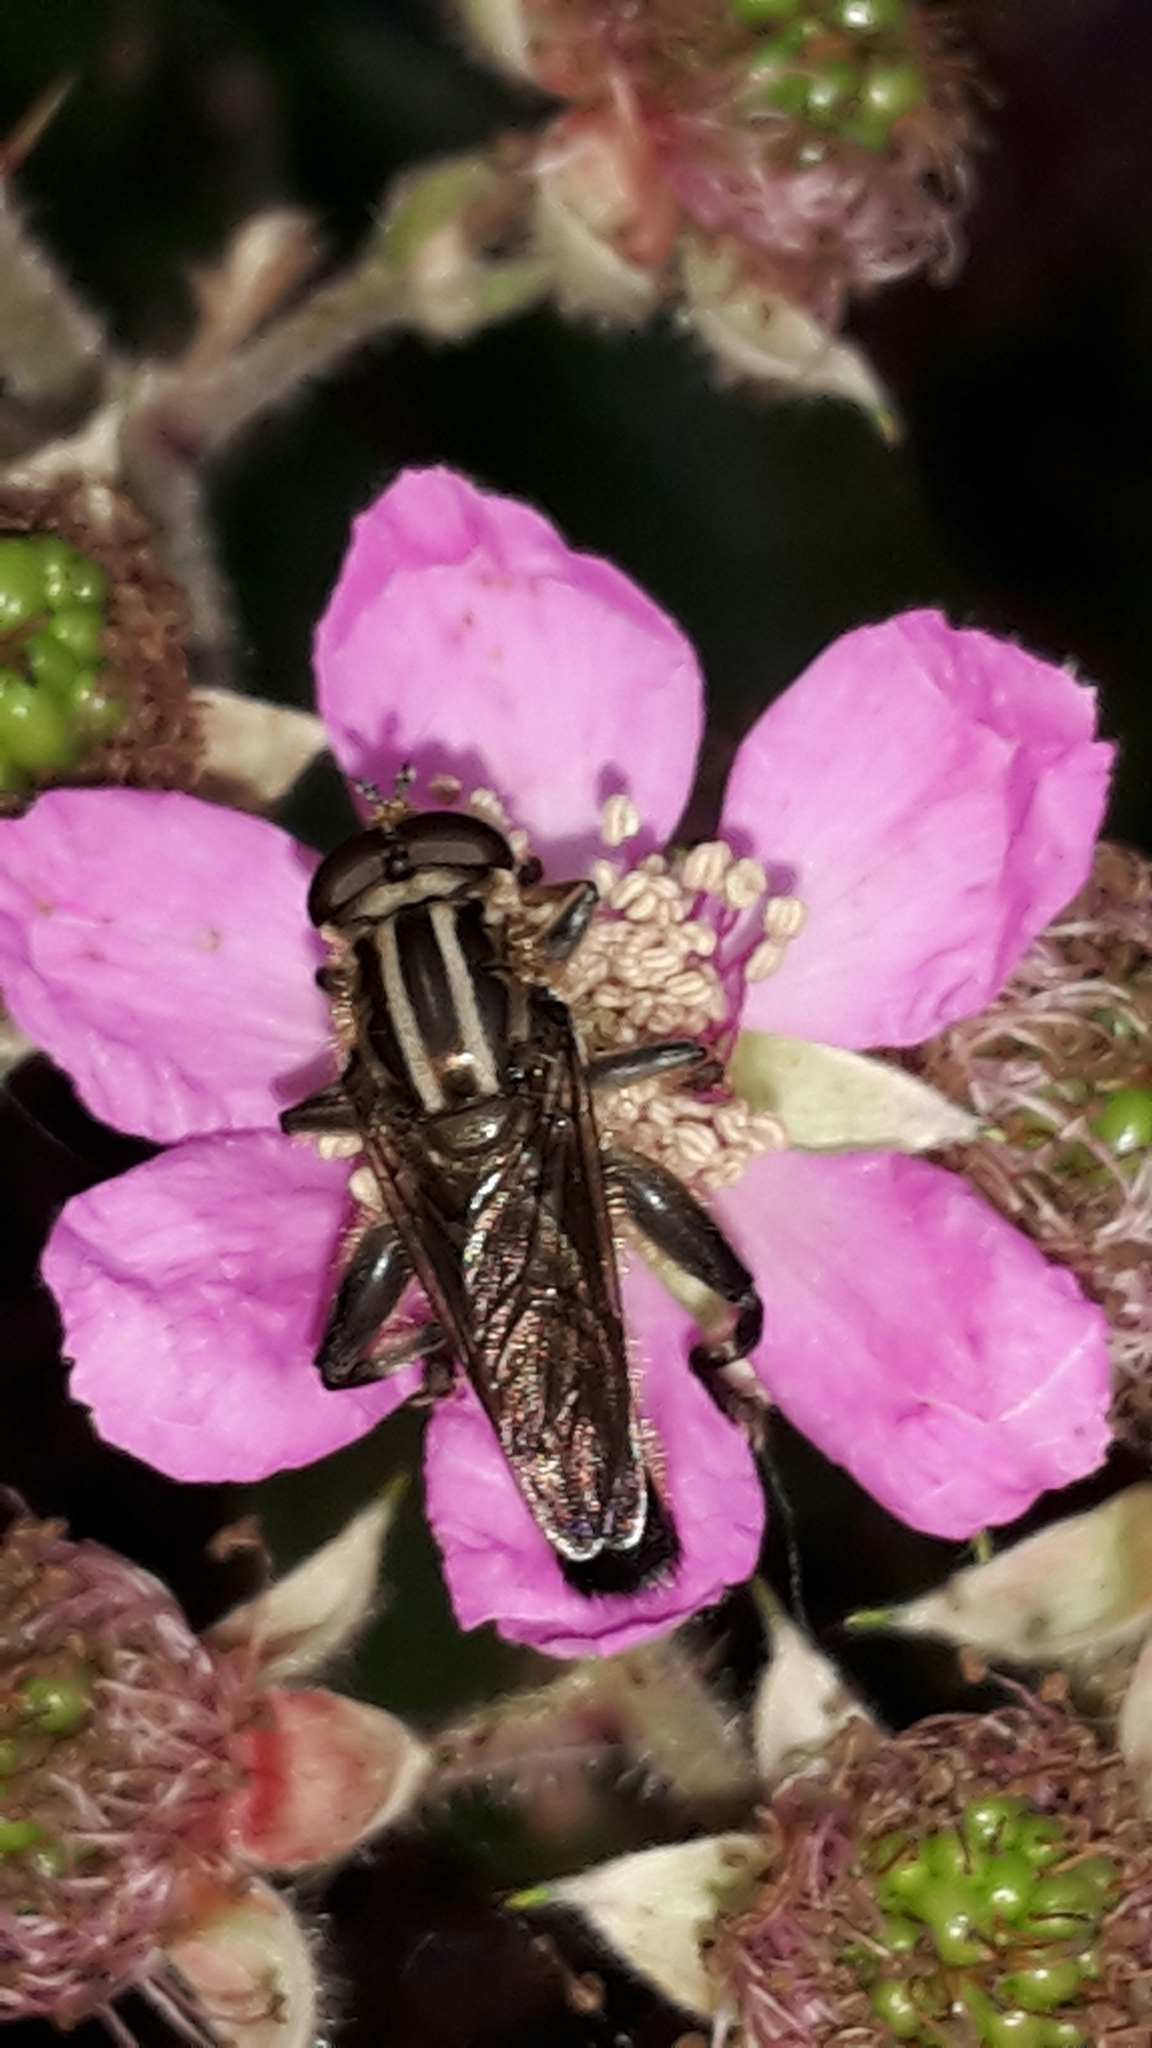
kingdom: Animalia
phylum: Arthropoda
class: Insecta
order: Diptera
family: Syrphidae
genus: Orthoprosopa
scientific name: Orthoprosopa bilineata
